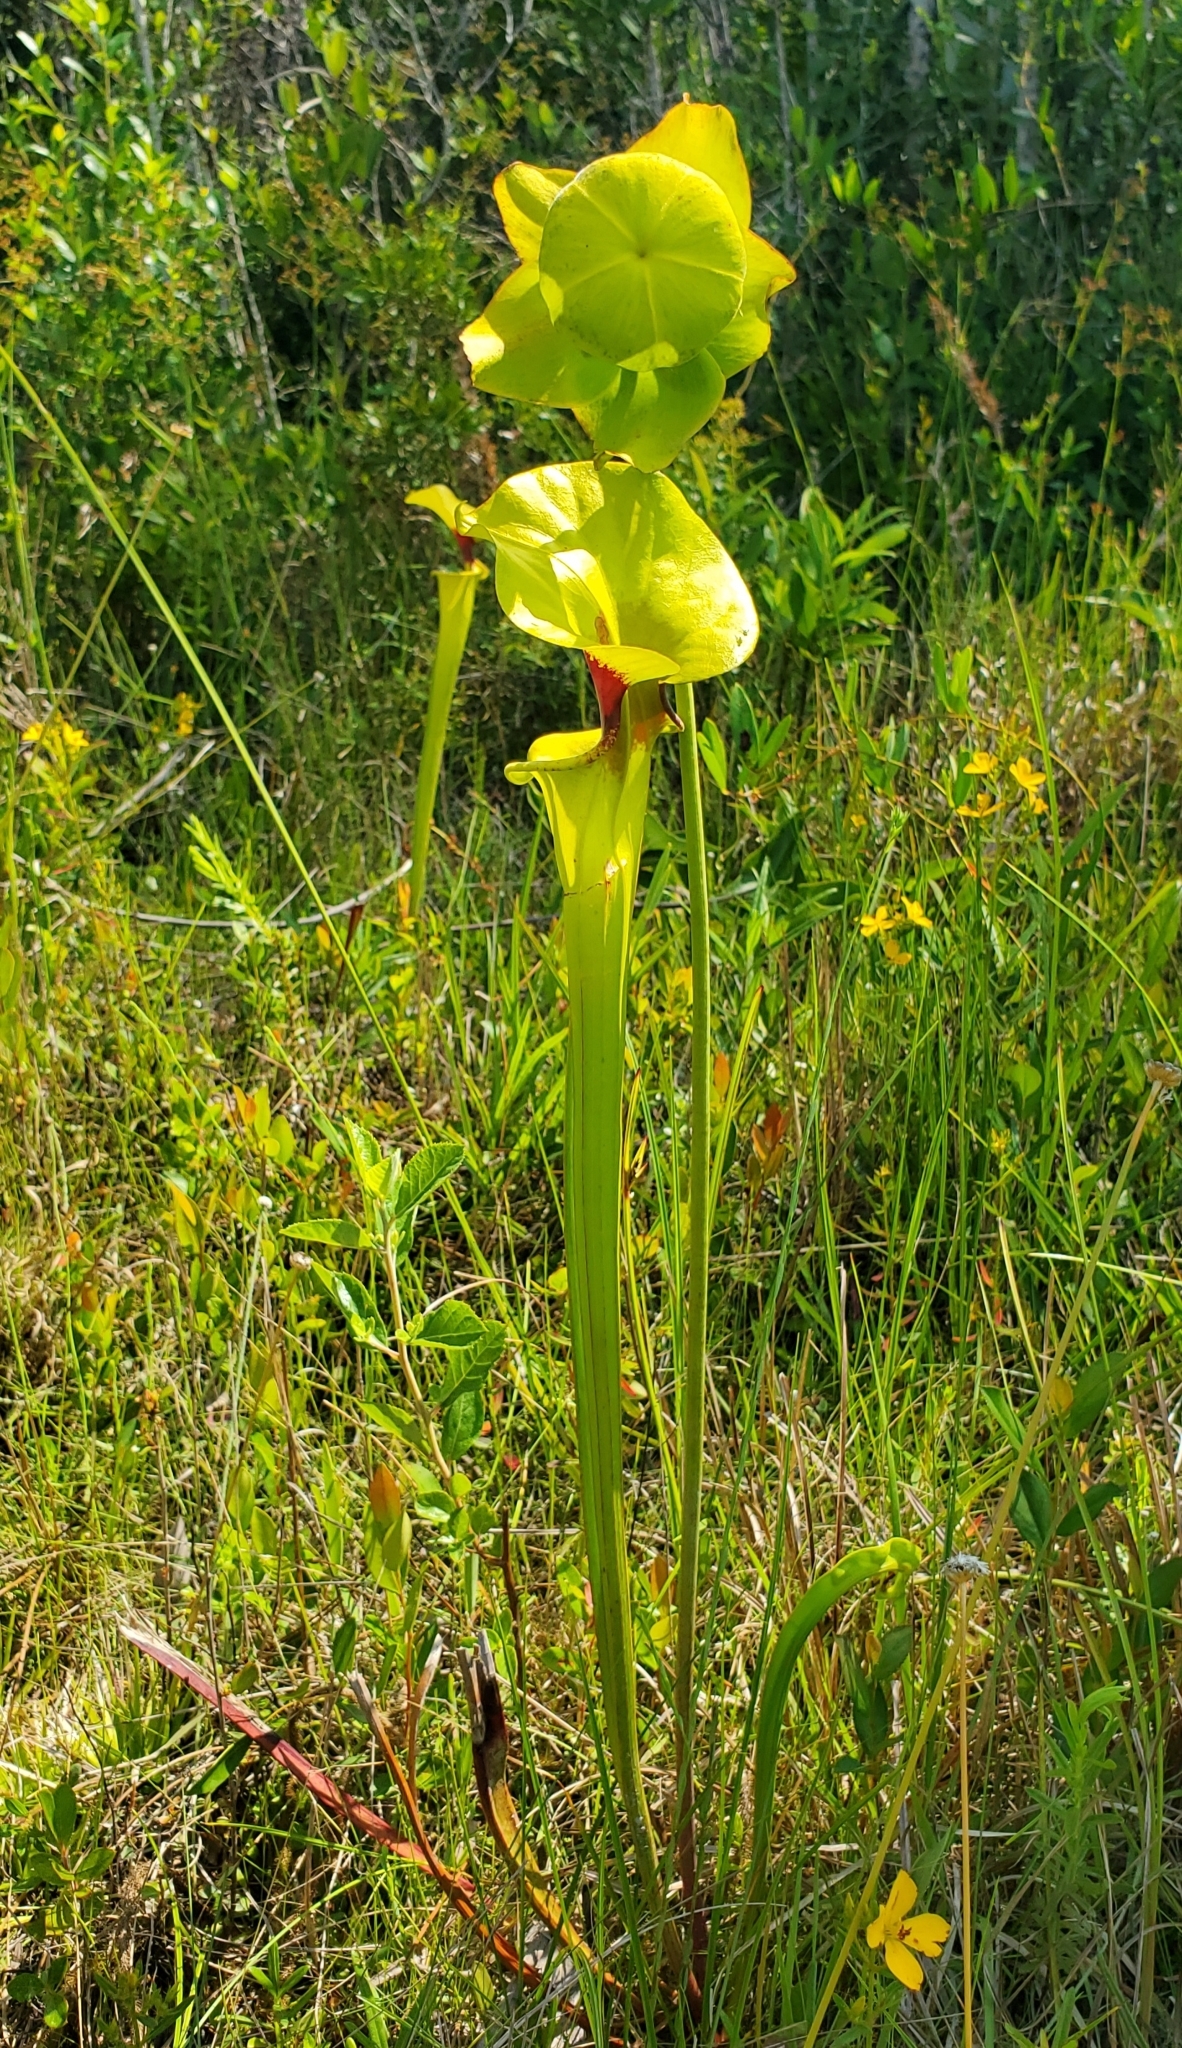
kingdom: Plantae
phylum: Tracheophyta
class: Magnoliopsida
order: Ericales
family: Sarraceniaceae
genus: Sarracenia
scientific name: Sarracenia flava
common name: Trumpets
